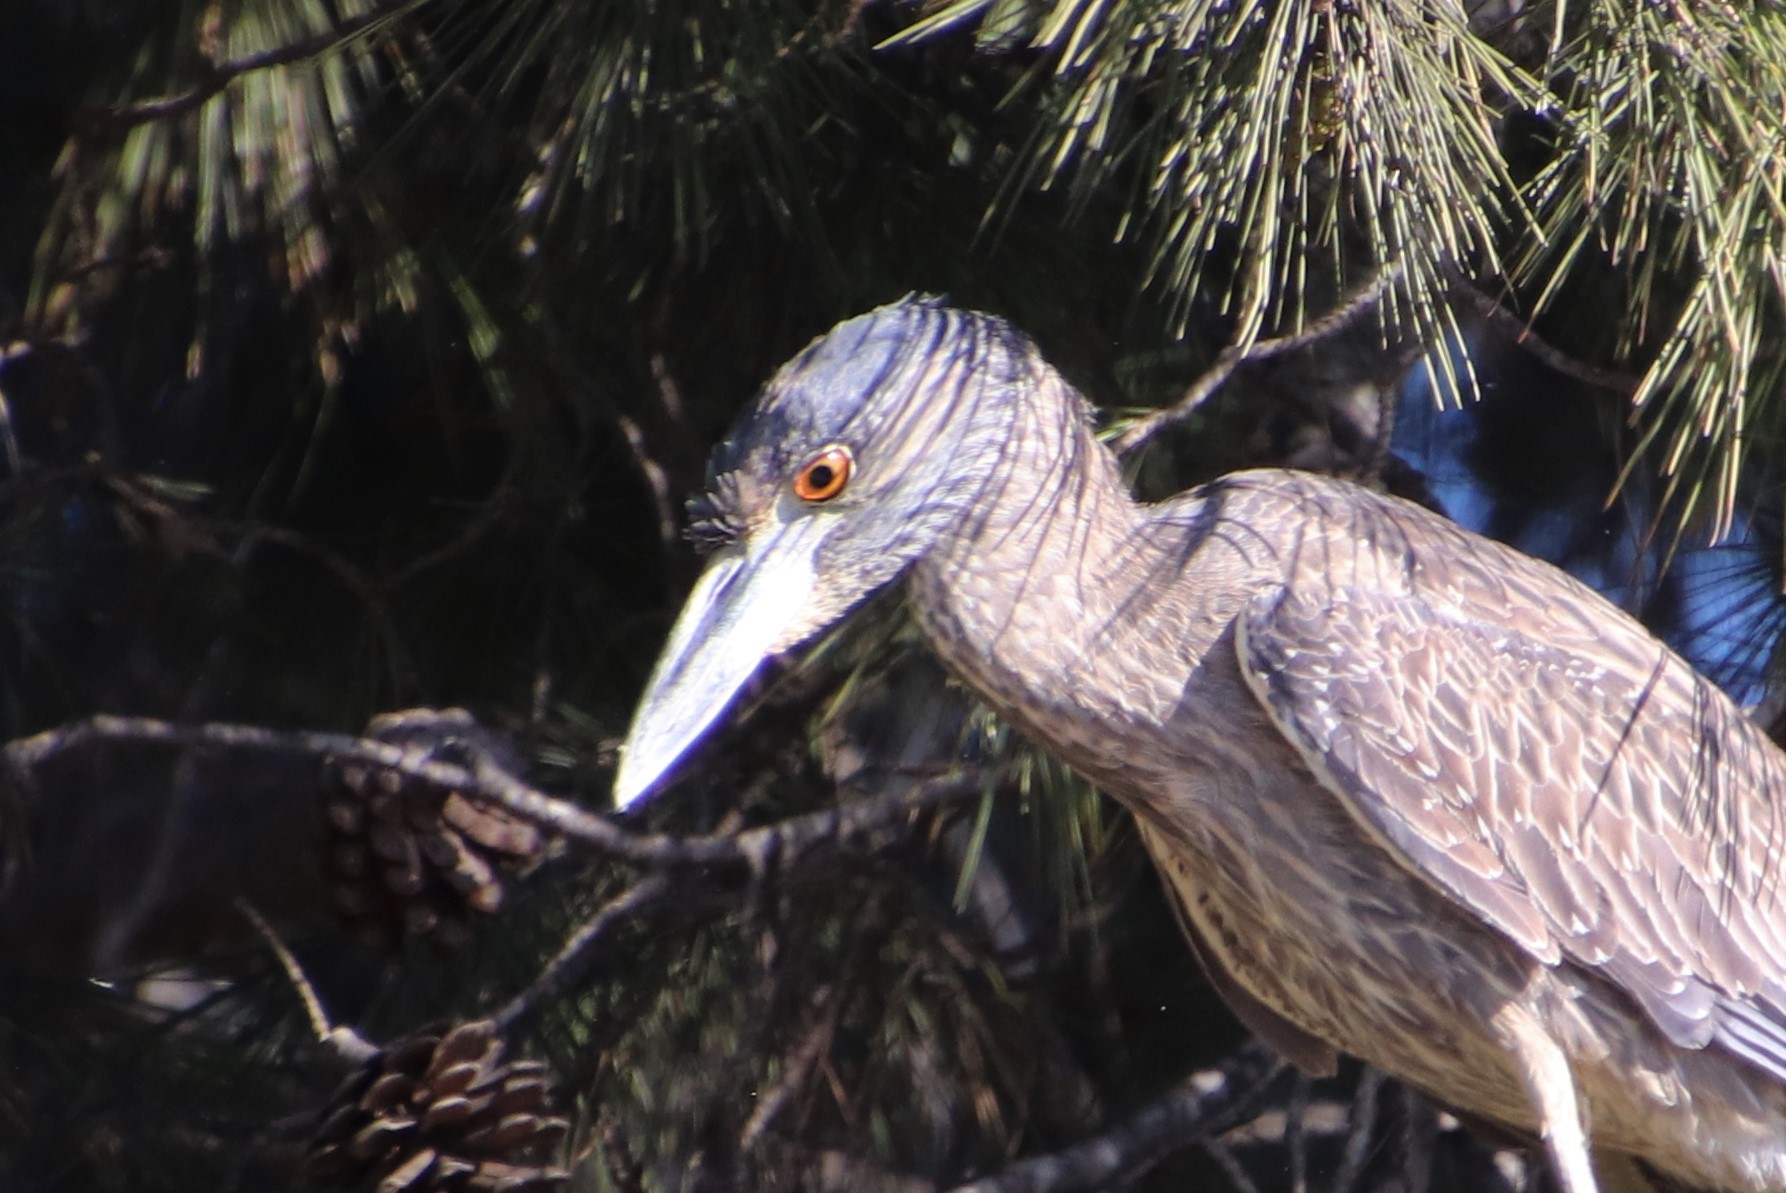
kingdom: Animalia
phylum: Chordata
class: Aves
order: Pelecaniformes
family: Ardeidae
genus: Nyctanassa
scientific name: Nyctanassa violacea
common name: Yellow-crowned night heron
